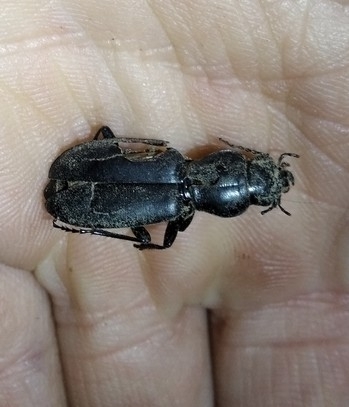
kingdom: Animalia
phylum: Arthropoda
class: Insecta
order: Coleoptera
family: Carabidae
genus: Broscus
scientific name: Broscus cephalotes
